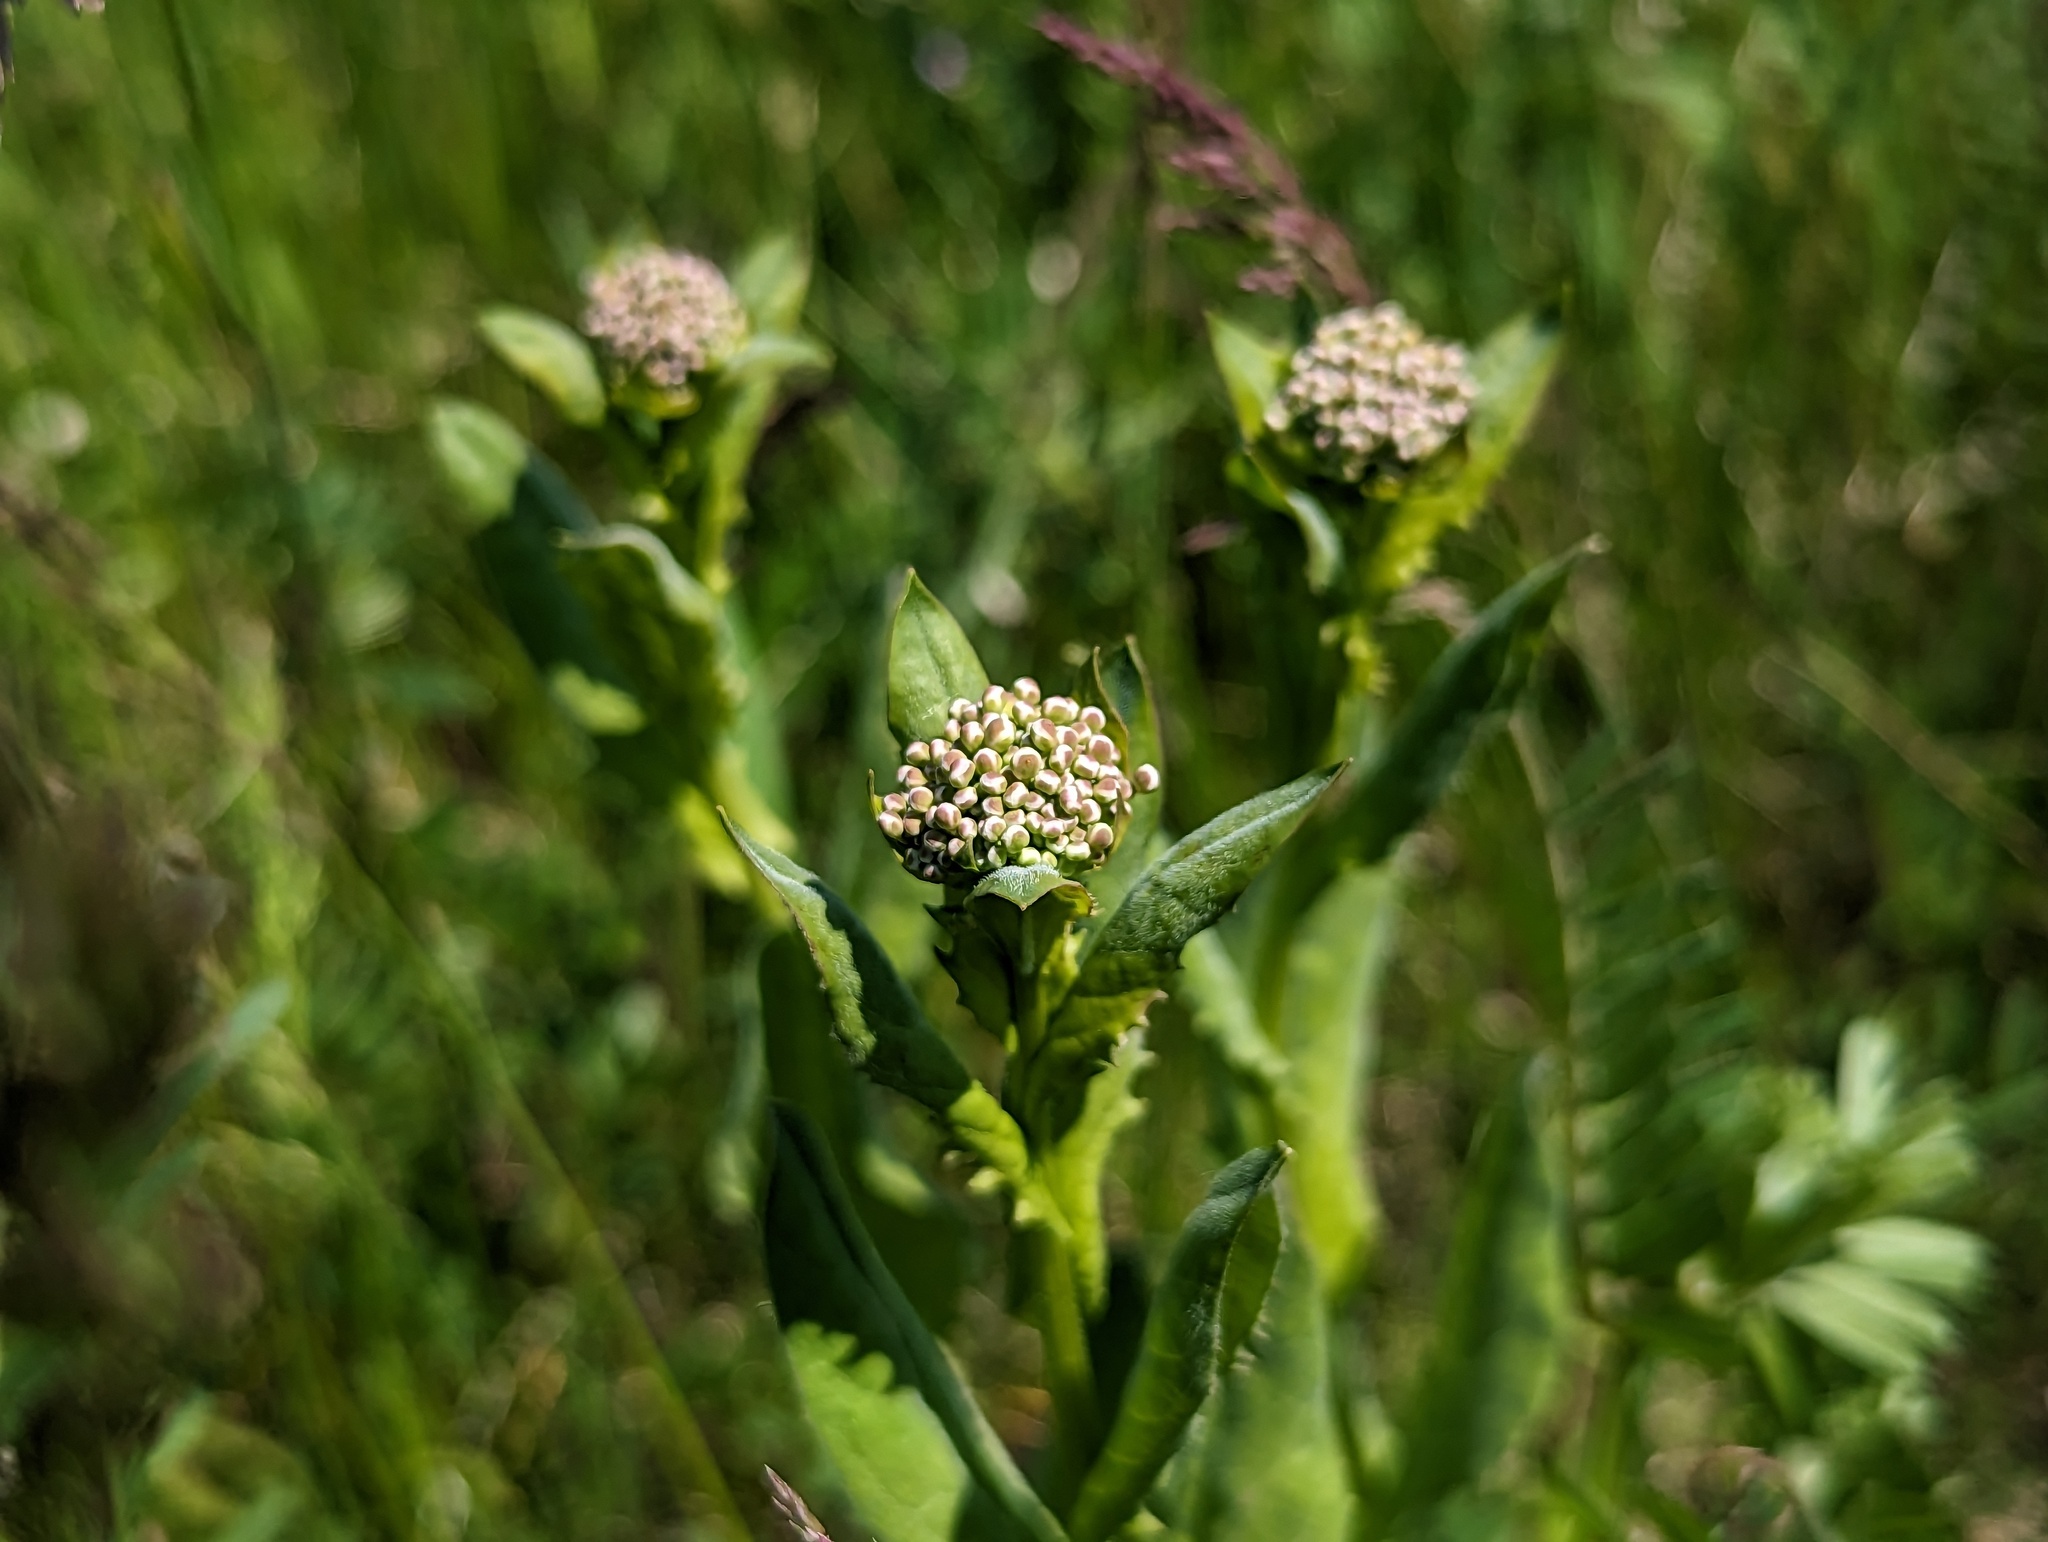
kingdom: Plantae
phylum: Tracheophyta
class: Magnoliopsida
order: Brassicales
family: Brassicaceae
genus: Lepidium
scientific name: Lepidium draba
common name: Hoary cress
